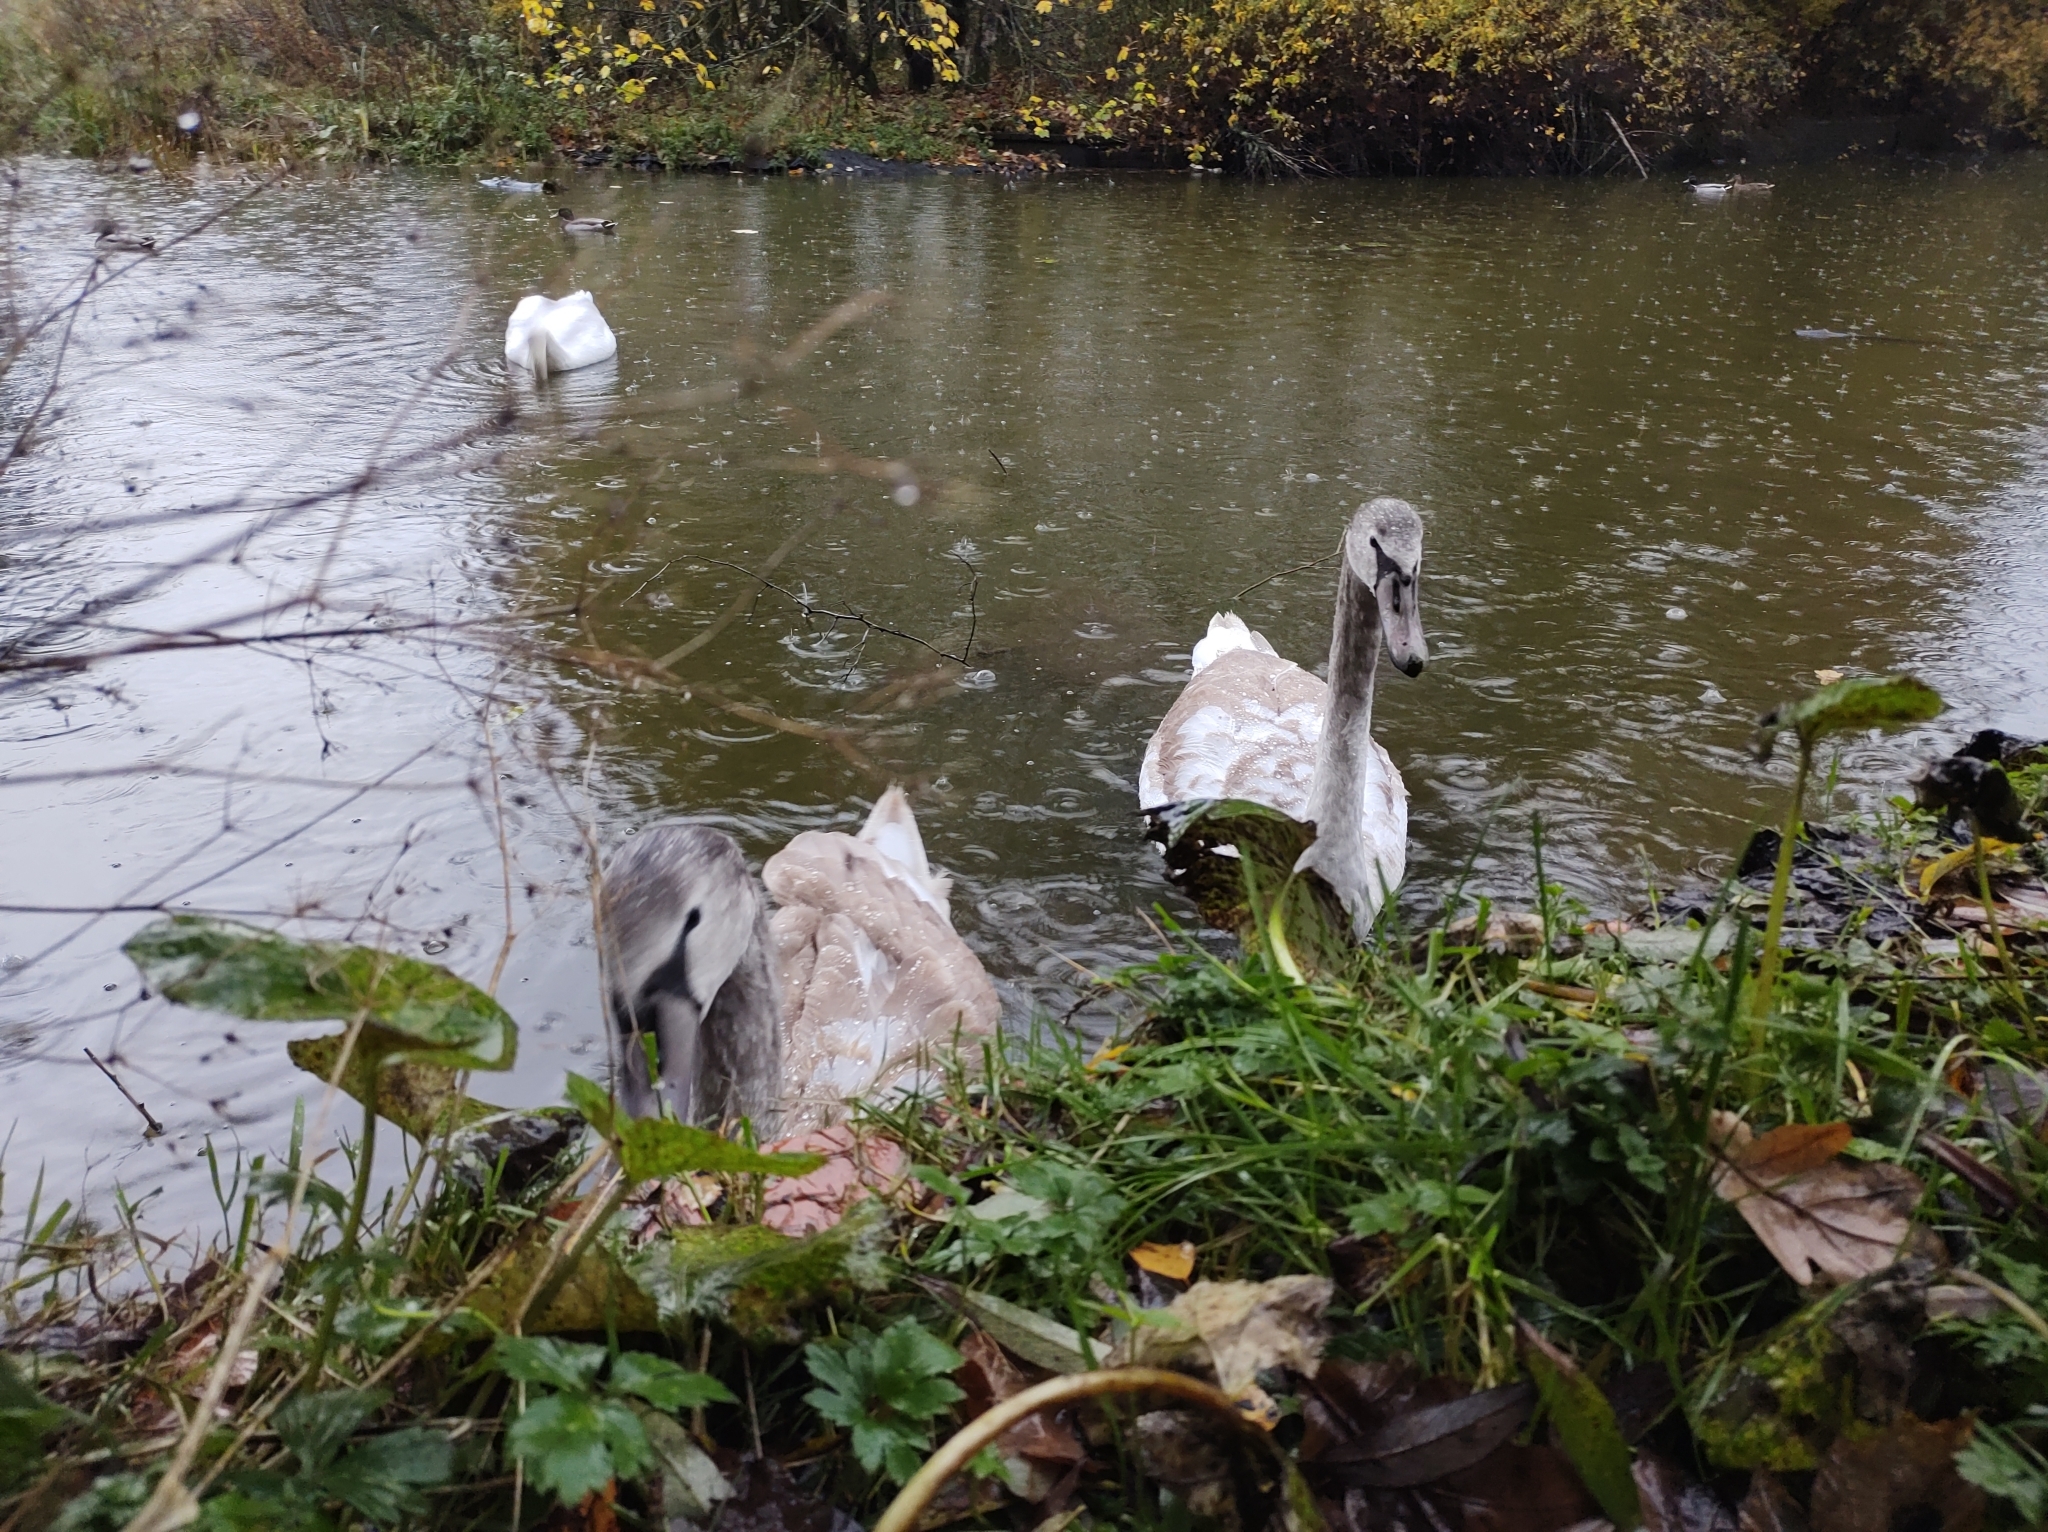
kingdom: Animalia
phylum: Chordata
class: Aves
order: Anseriformes
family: Anatidae
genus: Cygnus
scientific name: Cygnus olor
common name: Mute swan
